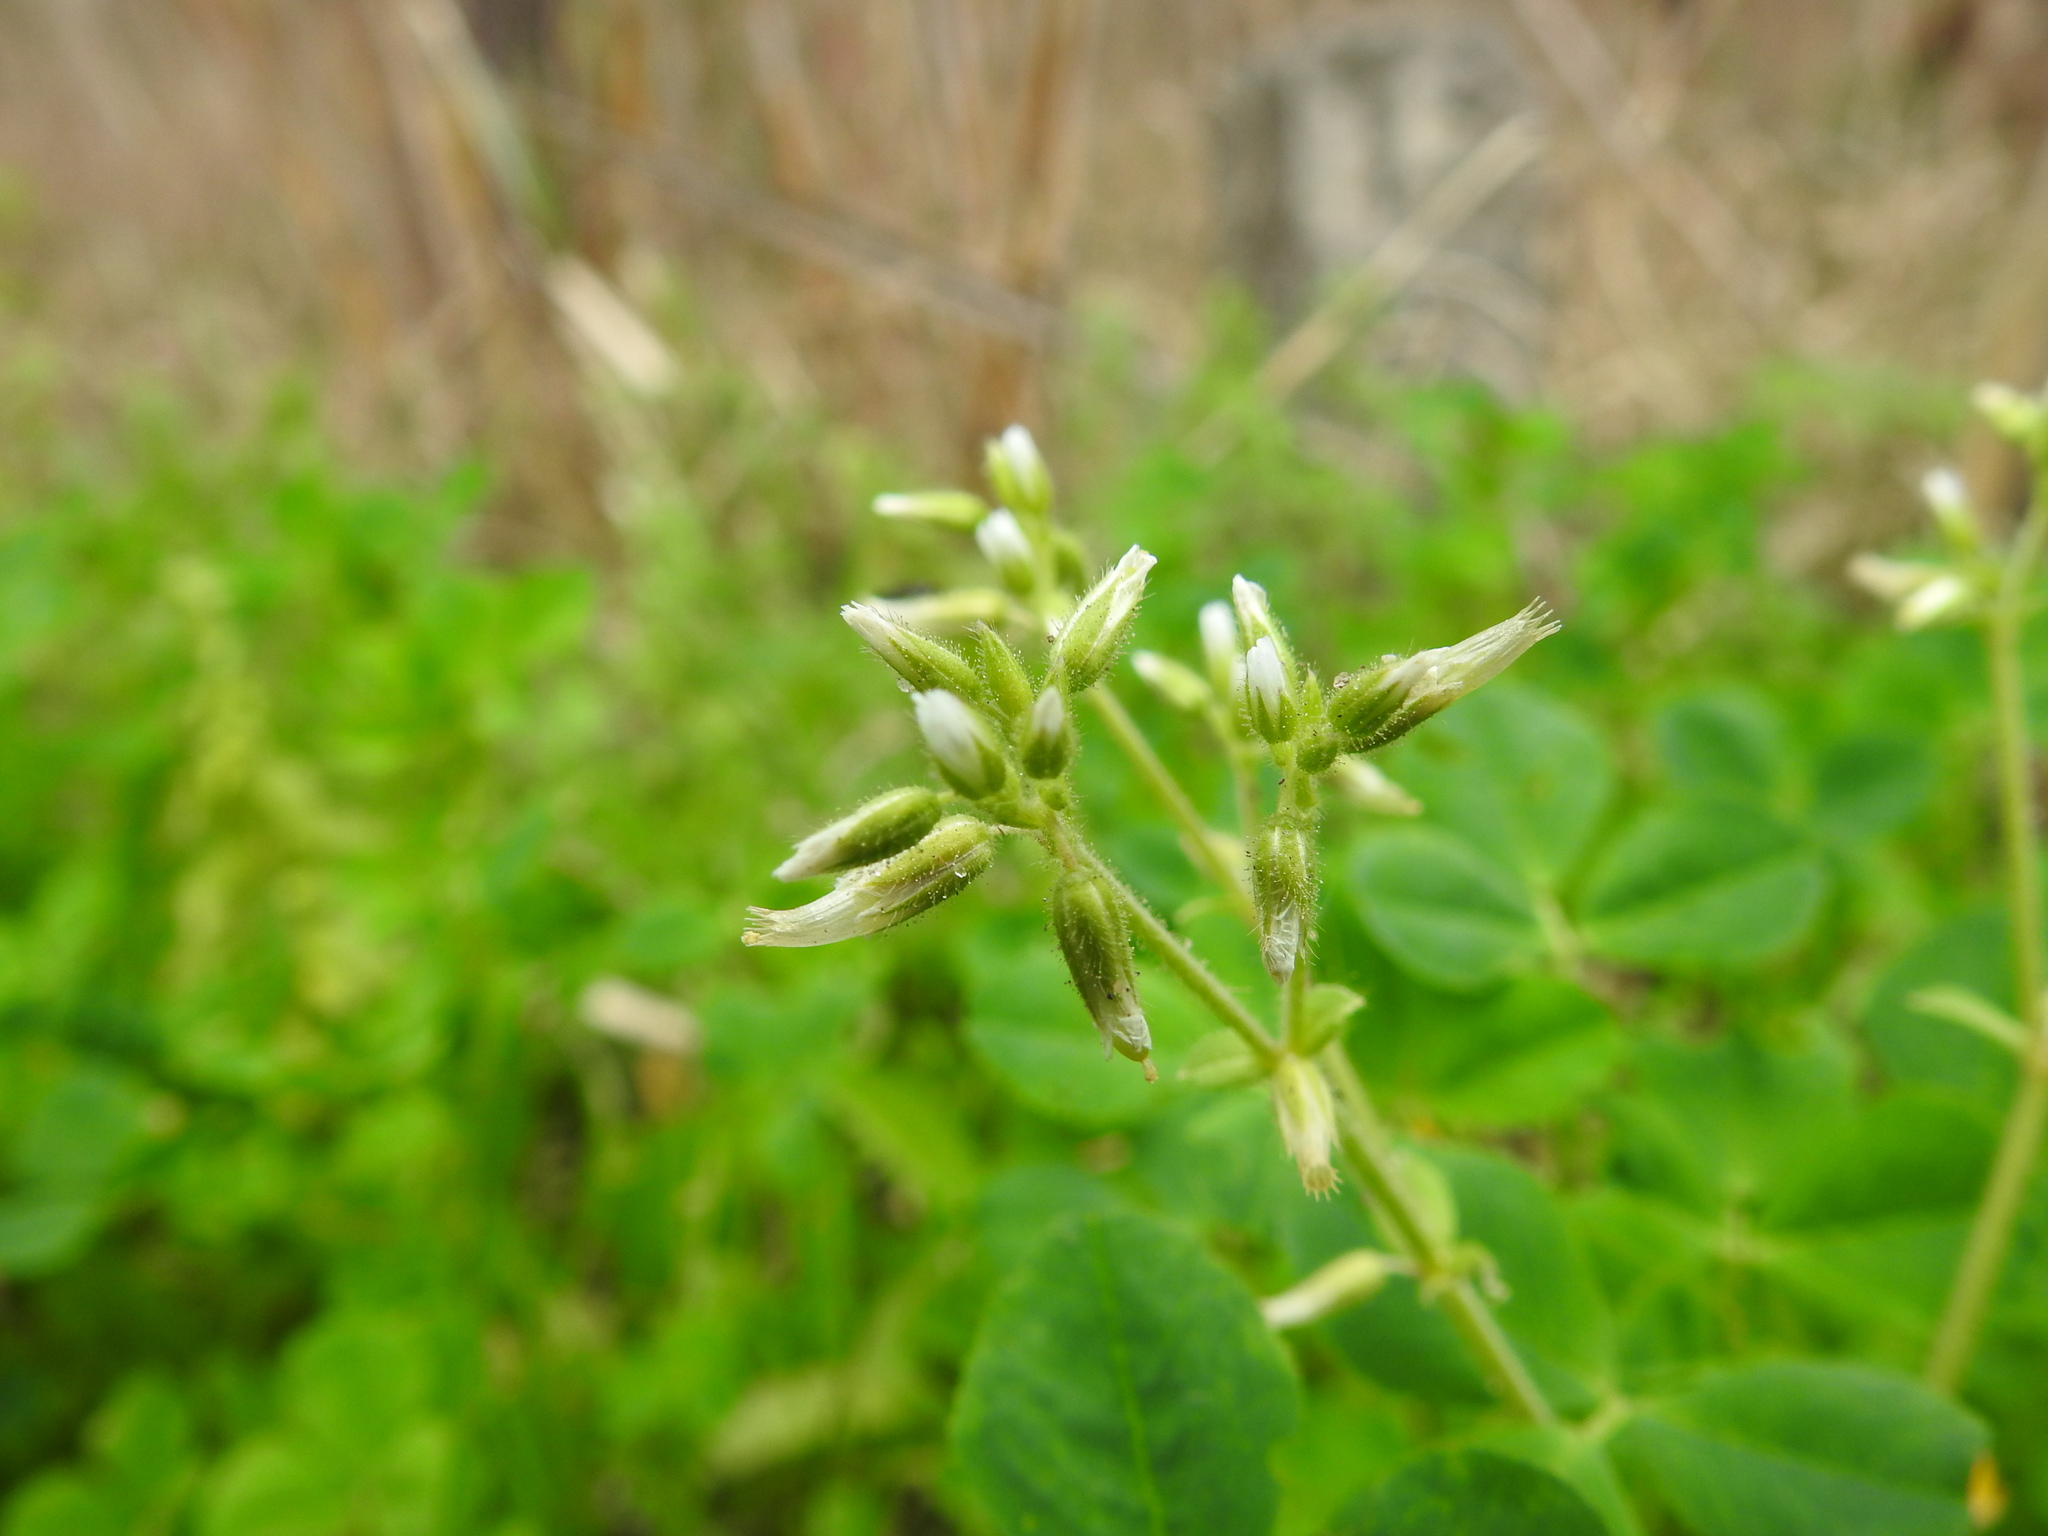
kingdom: Plantae
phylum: Tracheophyta
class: Magnoliopsida
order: Caryophyllales
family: Caryophyllaceae
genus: Cerastium
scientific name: Cerastium glomeratum
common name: Sticky chickweed
